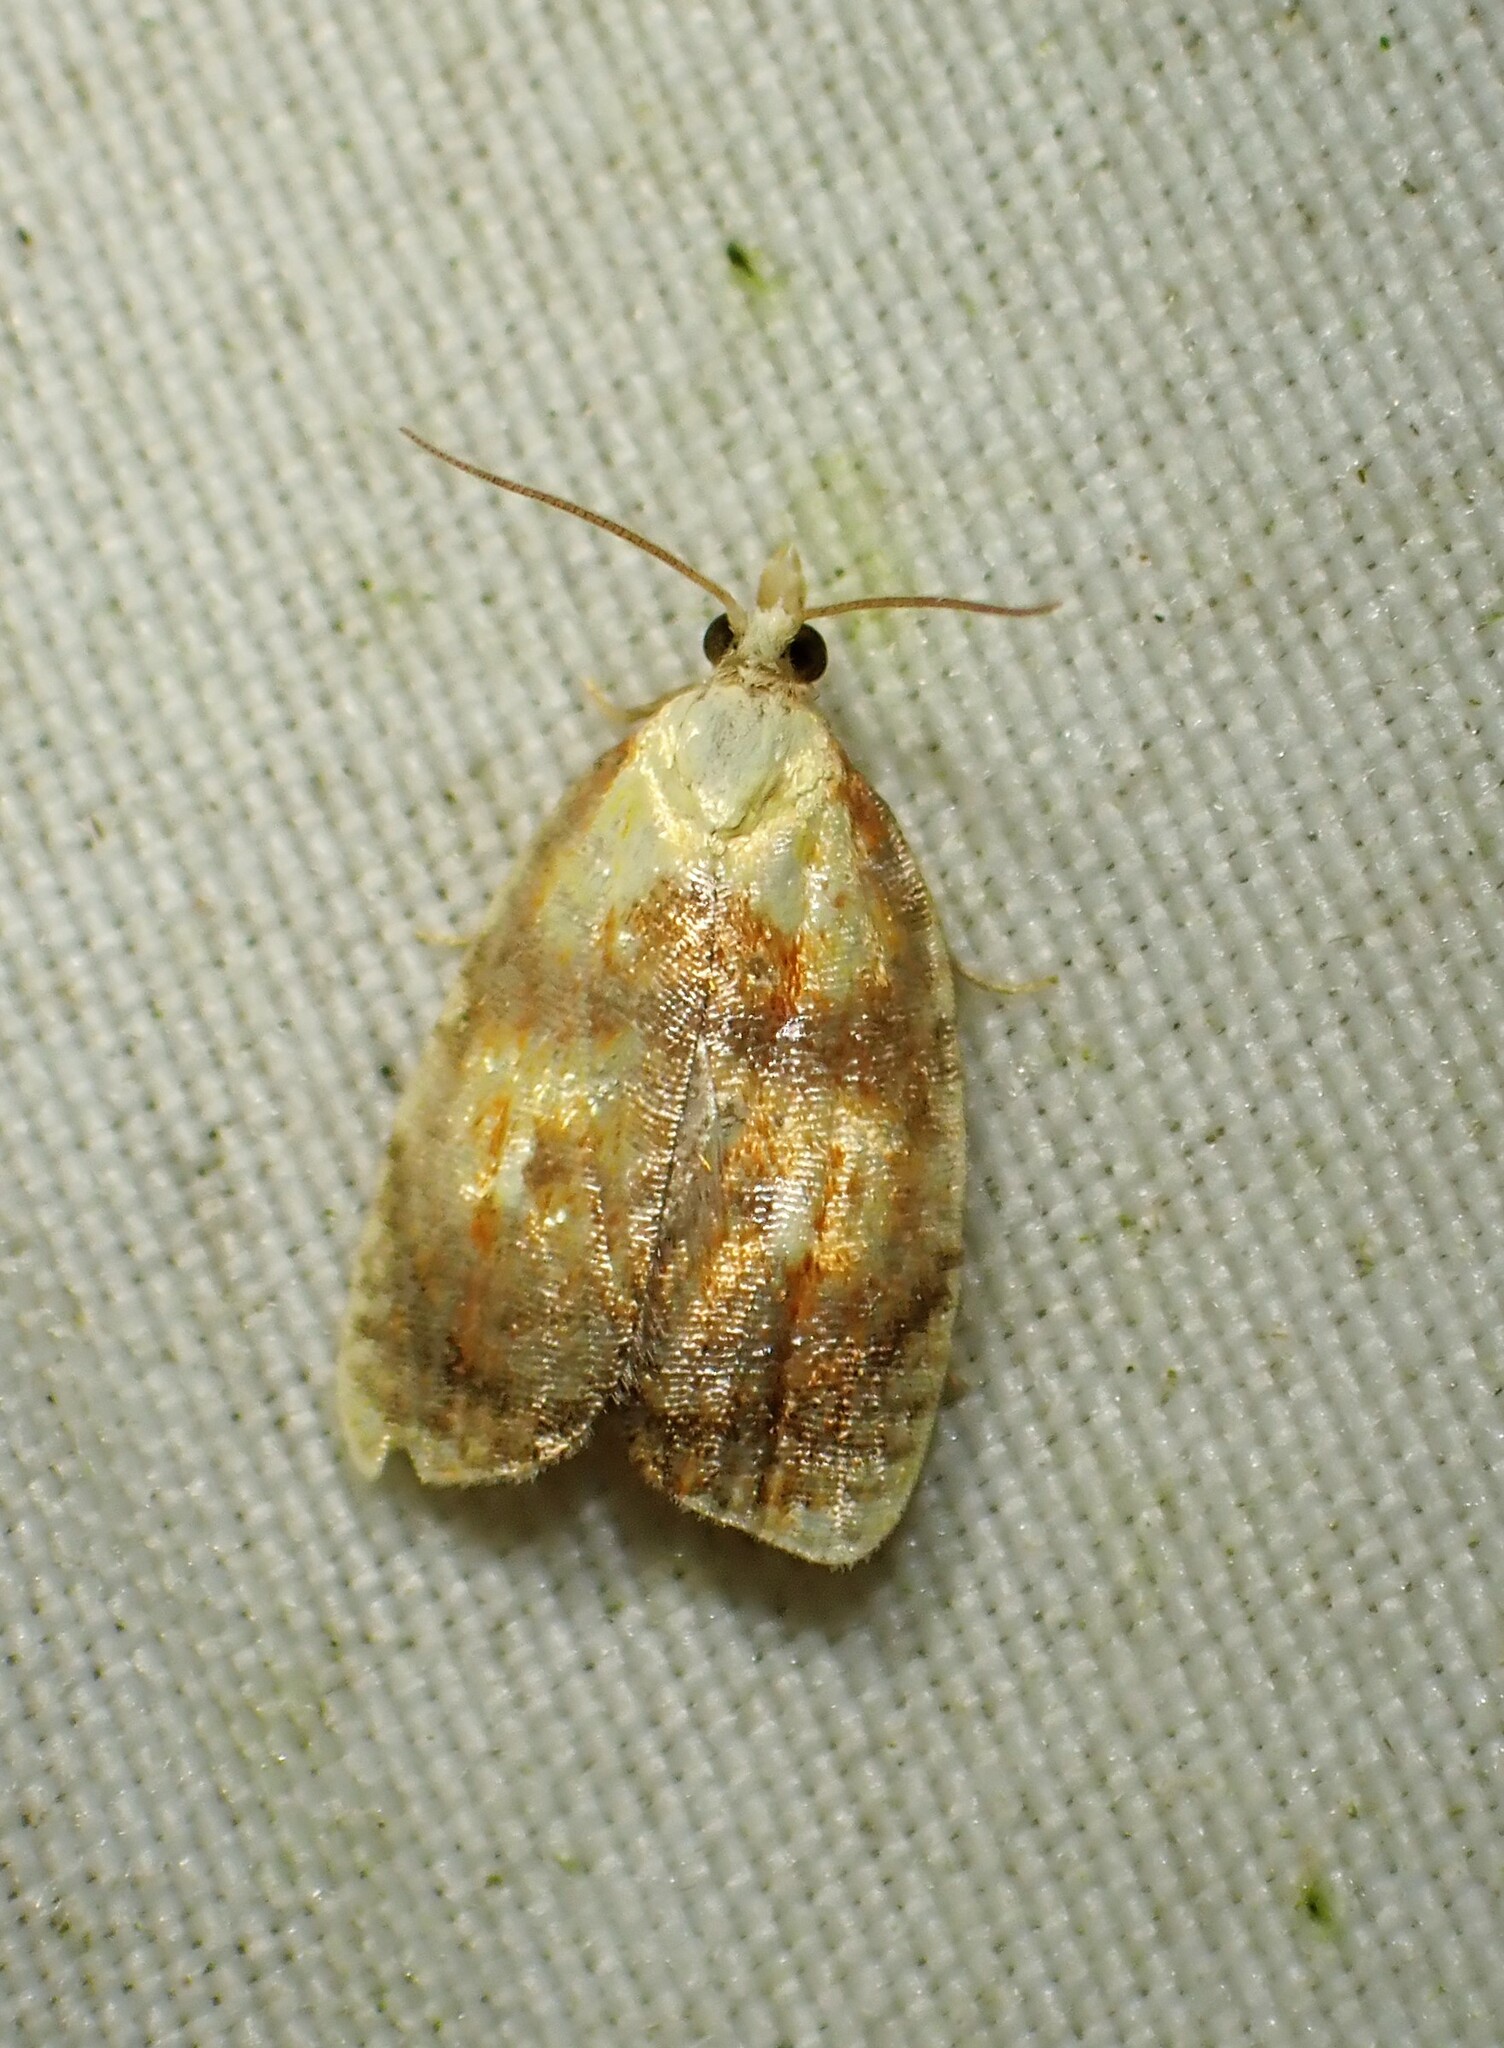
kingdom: Animalia
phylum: Arthropoda
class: Insecta
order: Lepidoptera
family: Tortricidae
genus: Acleris
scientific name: Acleris curvalana
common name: Blueberry leaftier moth
